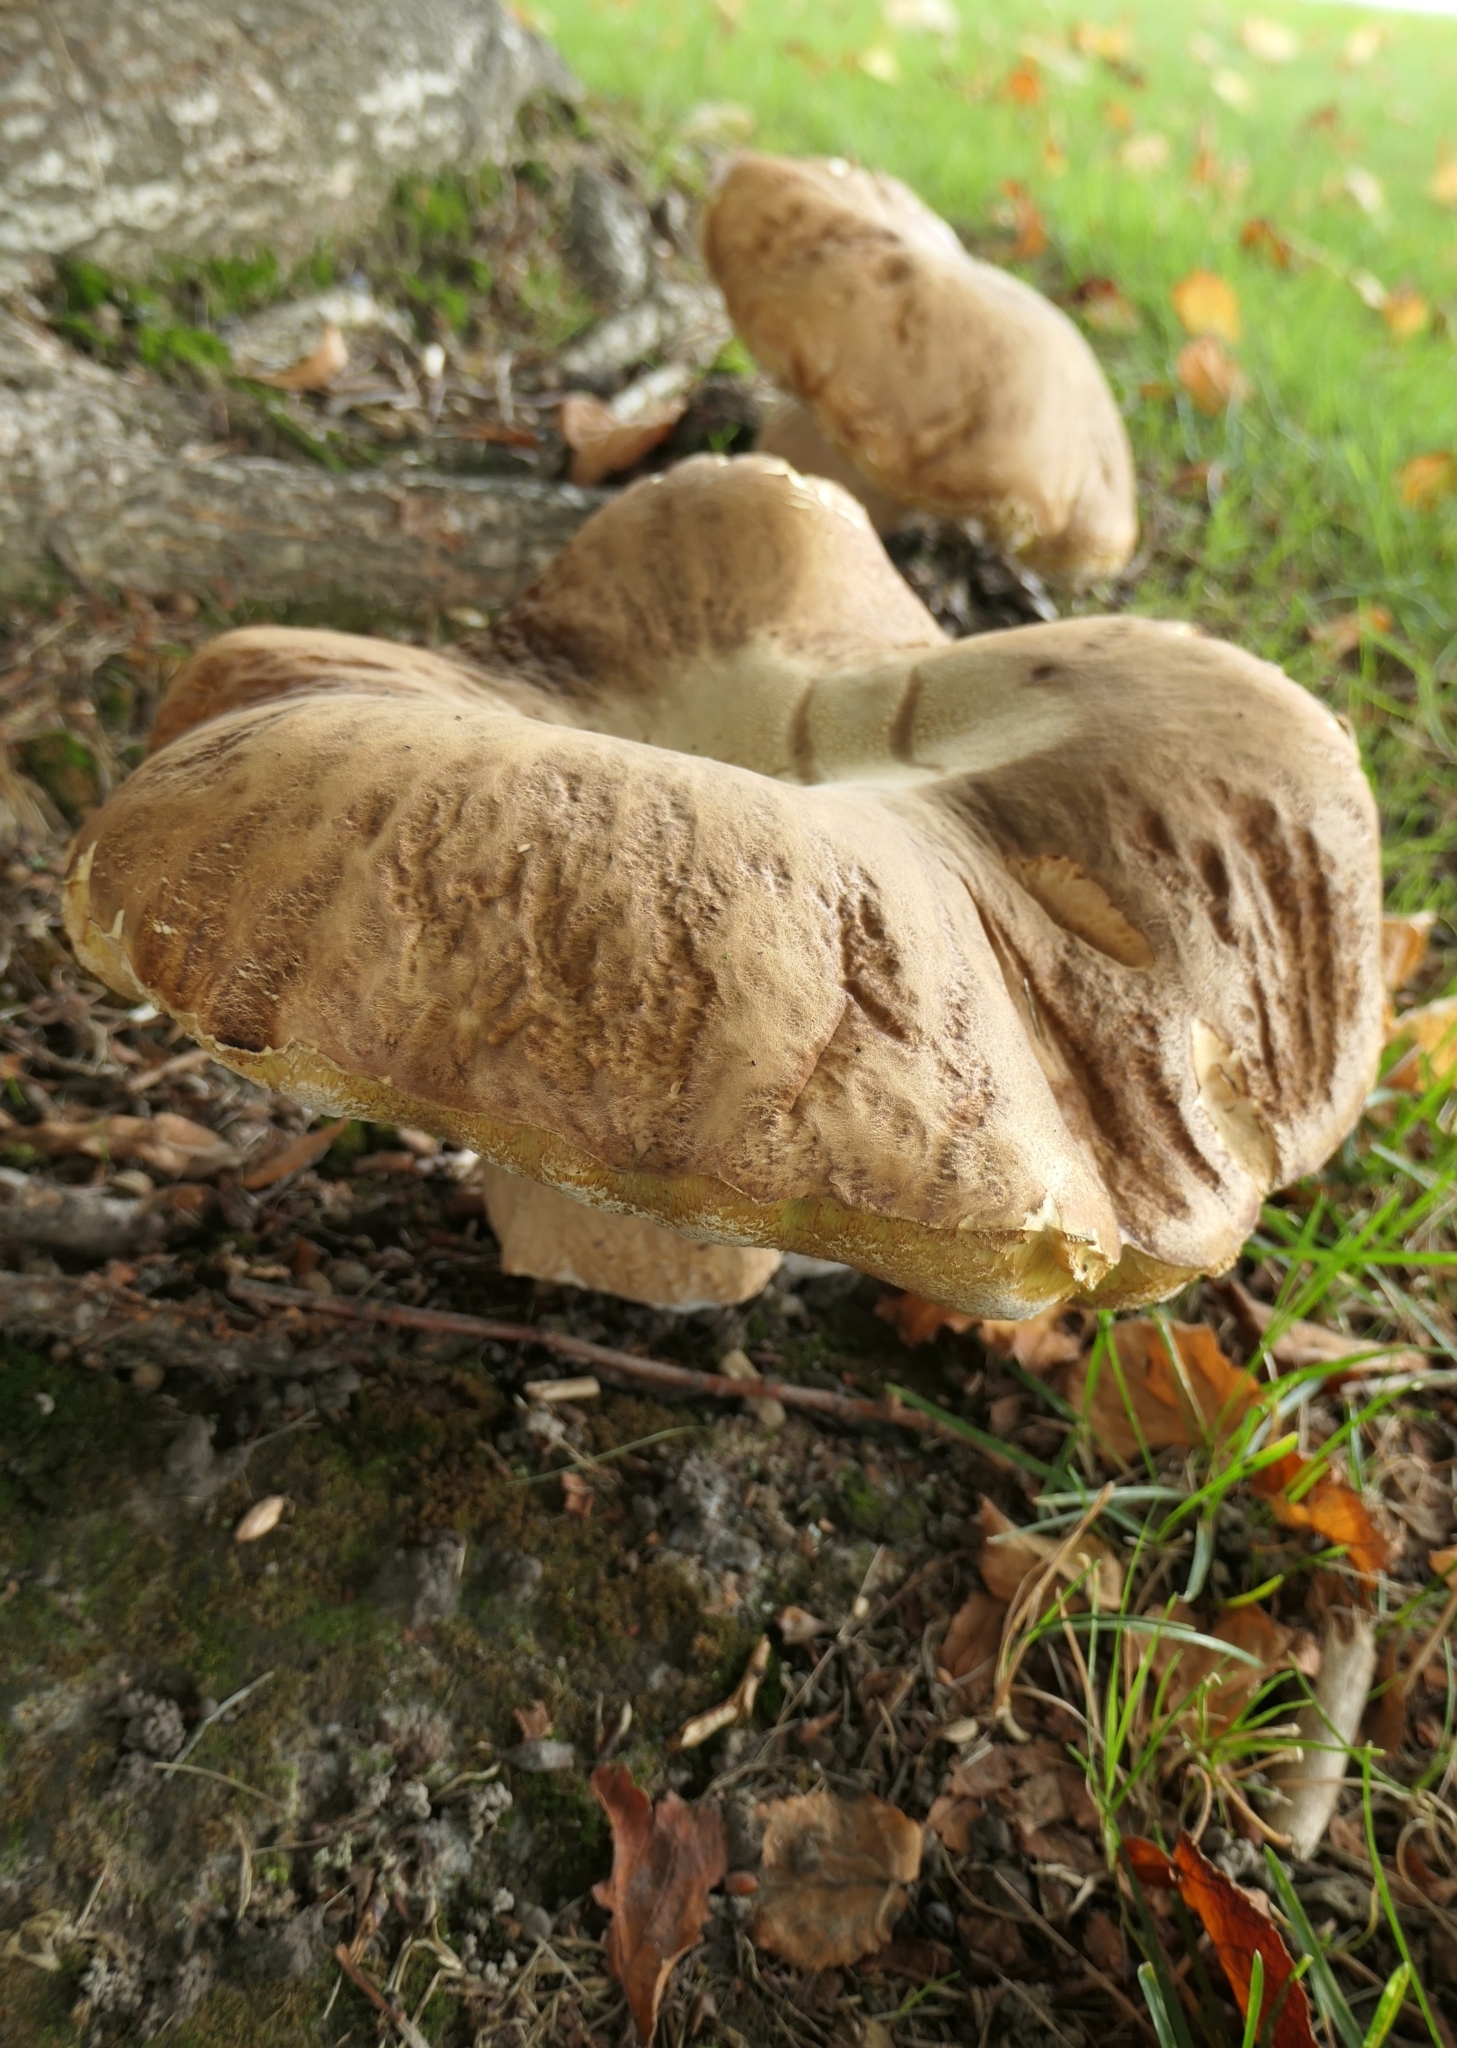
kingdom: Fungi
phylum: Basidiomycota
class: Agaricomycetes
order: Boletales
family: Boletaceae
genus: Boletus
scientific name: Boletus edulis
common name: Cep
